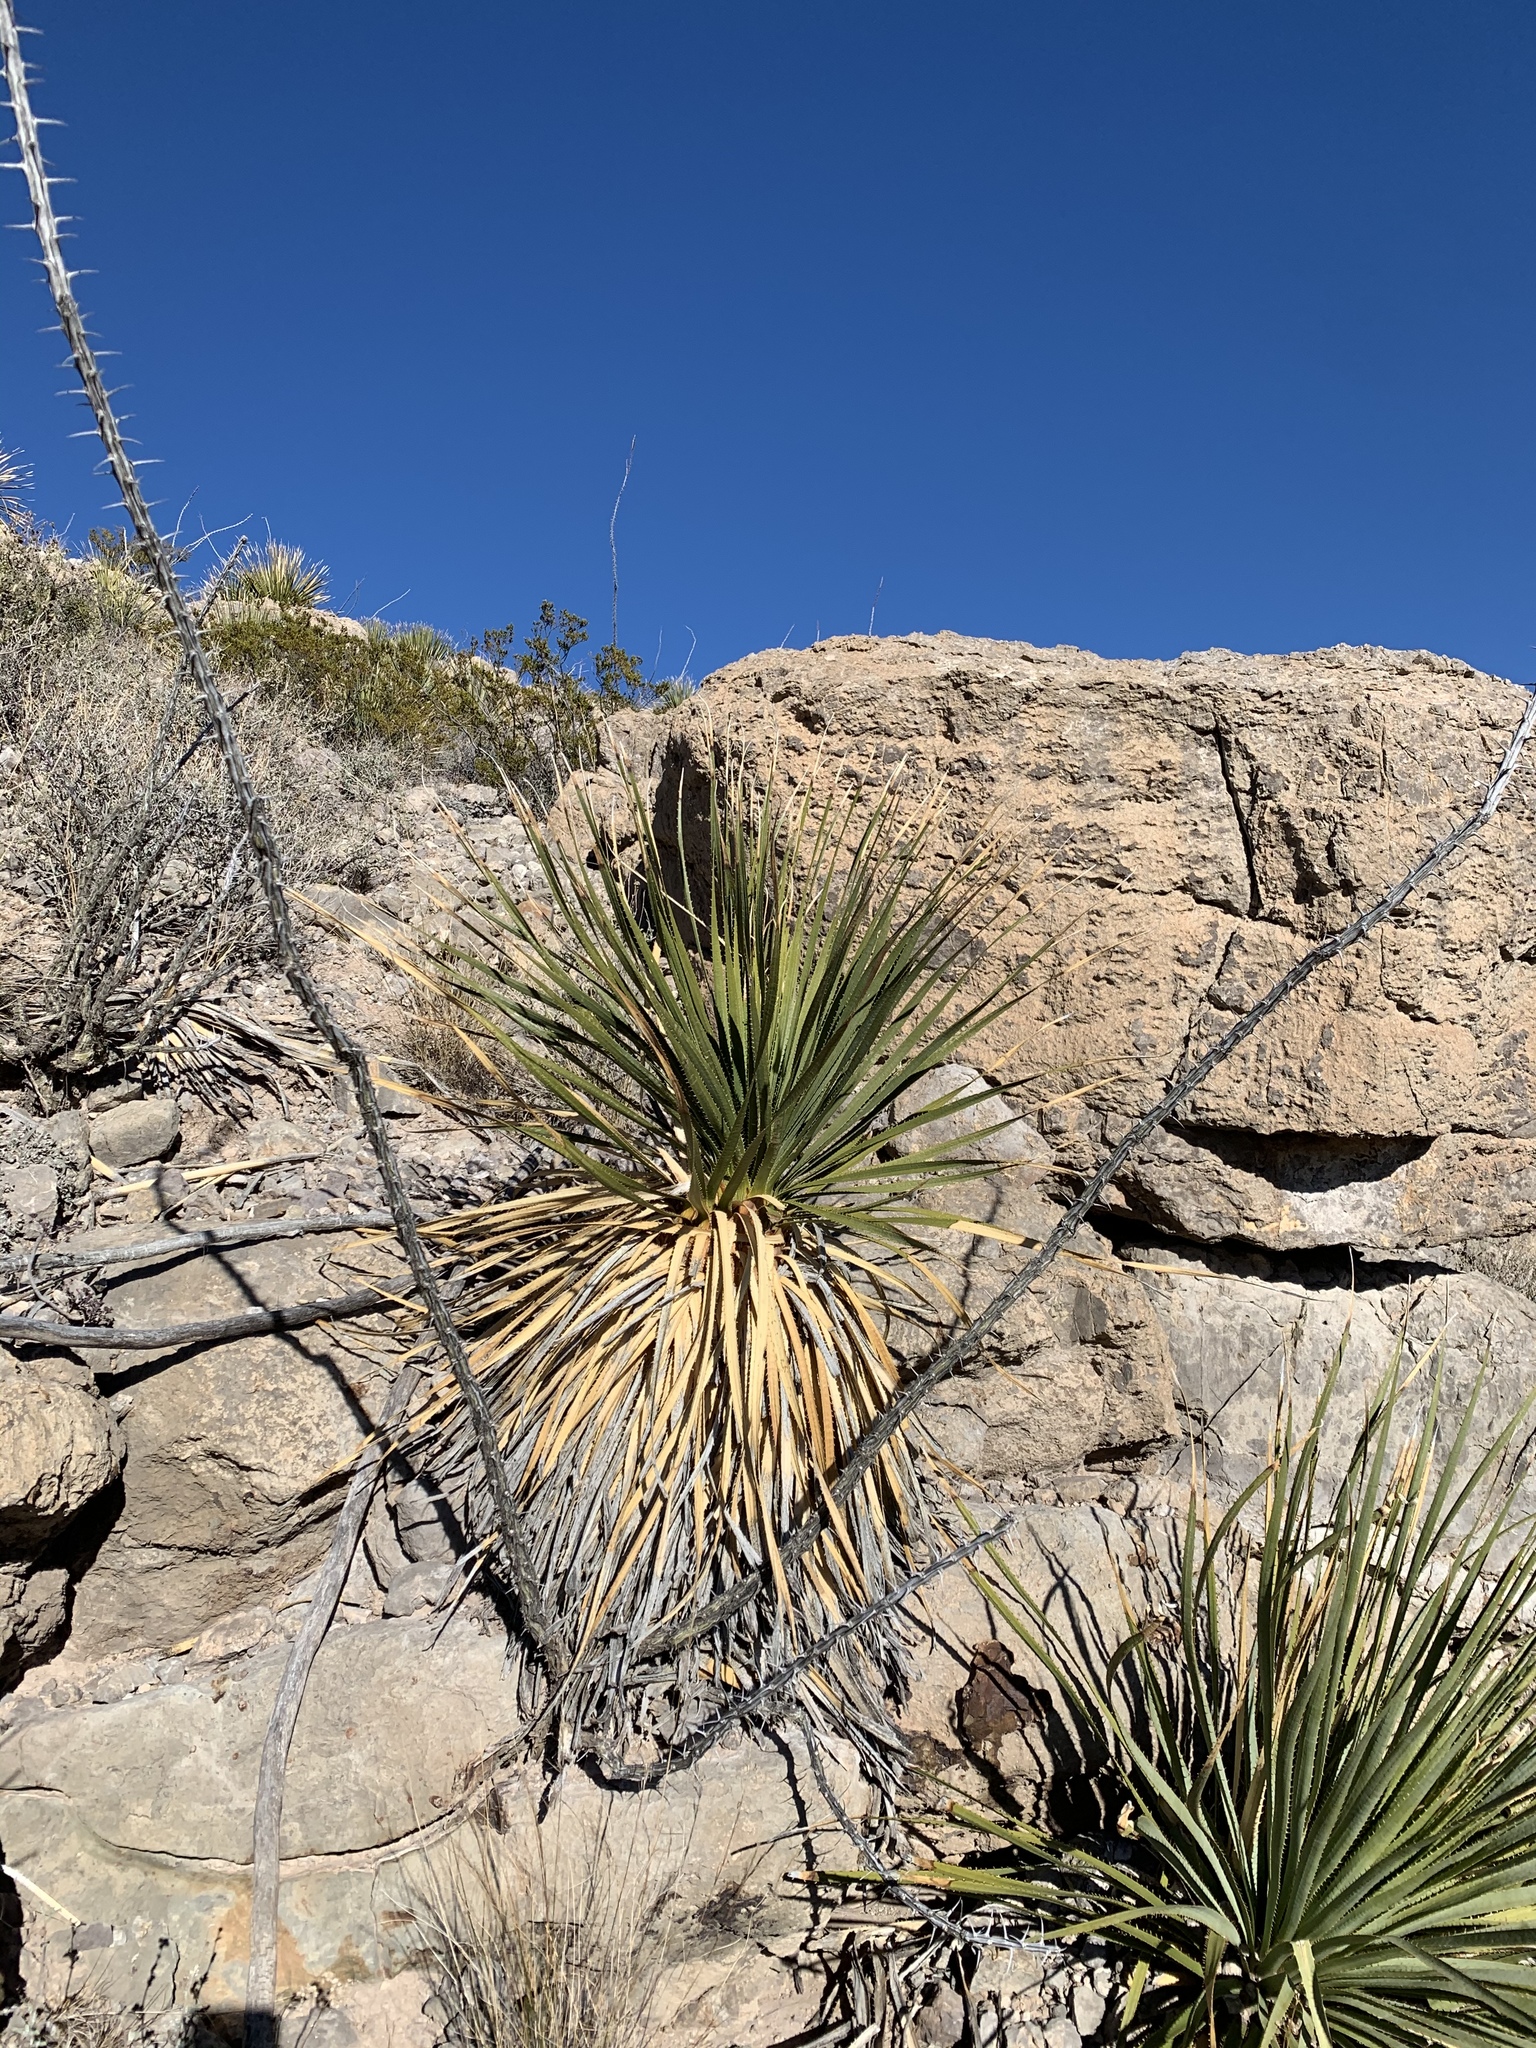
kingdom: Plantae
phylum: Tracheophyta
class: Liliopsida
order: Asparagales
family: Asparagaceae
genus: Dasylirion
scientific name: Dasylirion wheeleri
